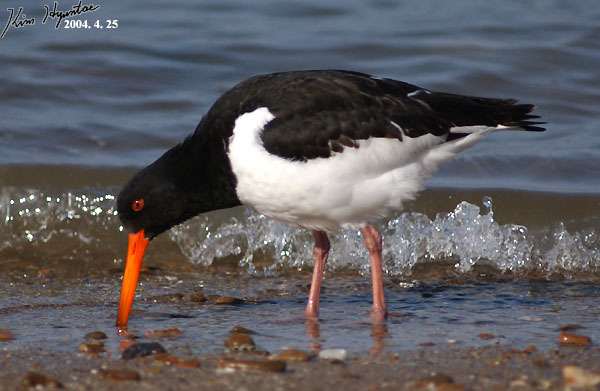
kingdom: Animalia
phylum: Chordata
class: Aves
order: Charadriiformes
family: Haematopodidae
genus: Haematopus
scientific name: Haematopus ostralegus
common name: Eurasian oystercatcher
